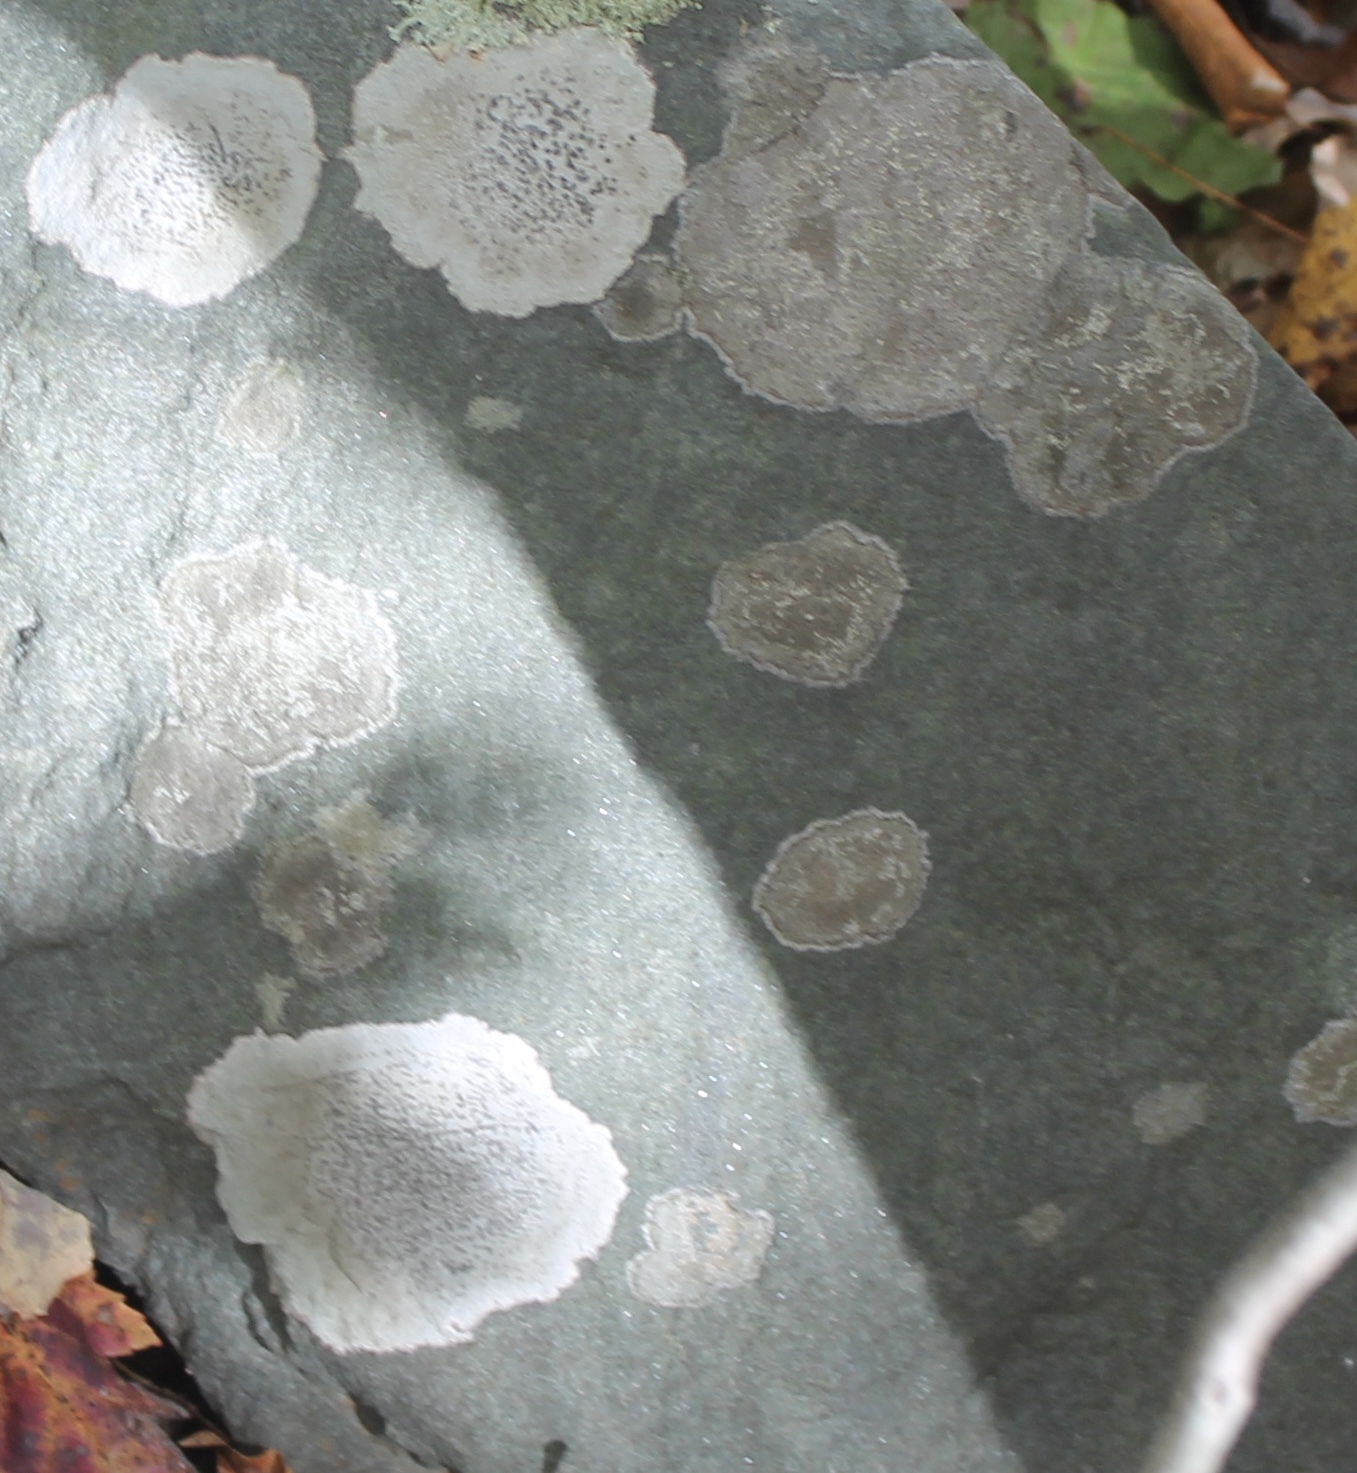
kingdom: Fungi
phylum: Ascomycota
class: Lecanoromycetes
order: Lecideales
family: Lecideaceae
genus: Porpidia
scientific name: Porpidia albocaerulescens
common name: Smokey-eyed boulder lichen
